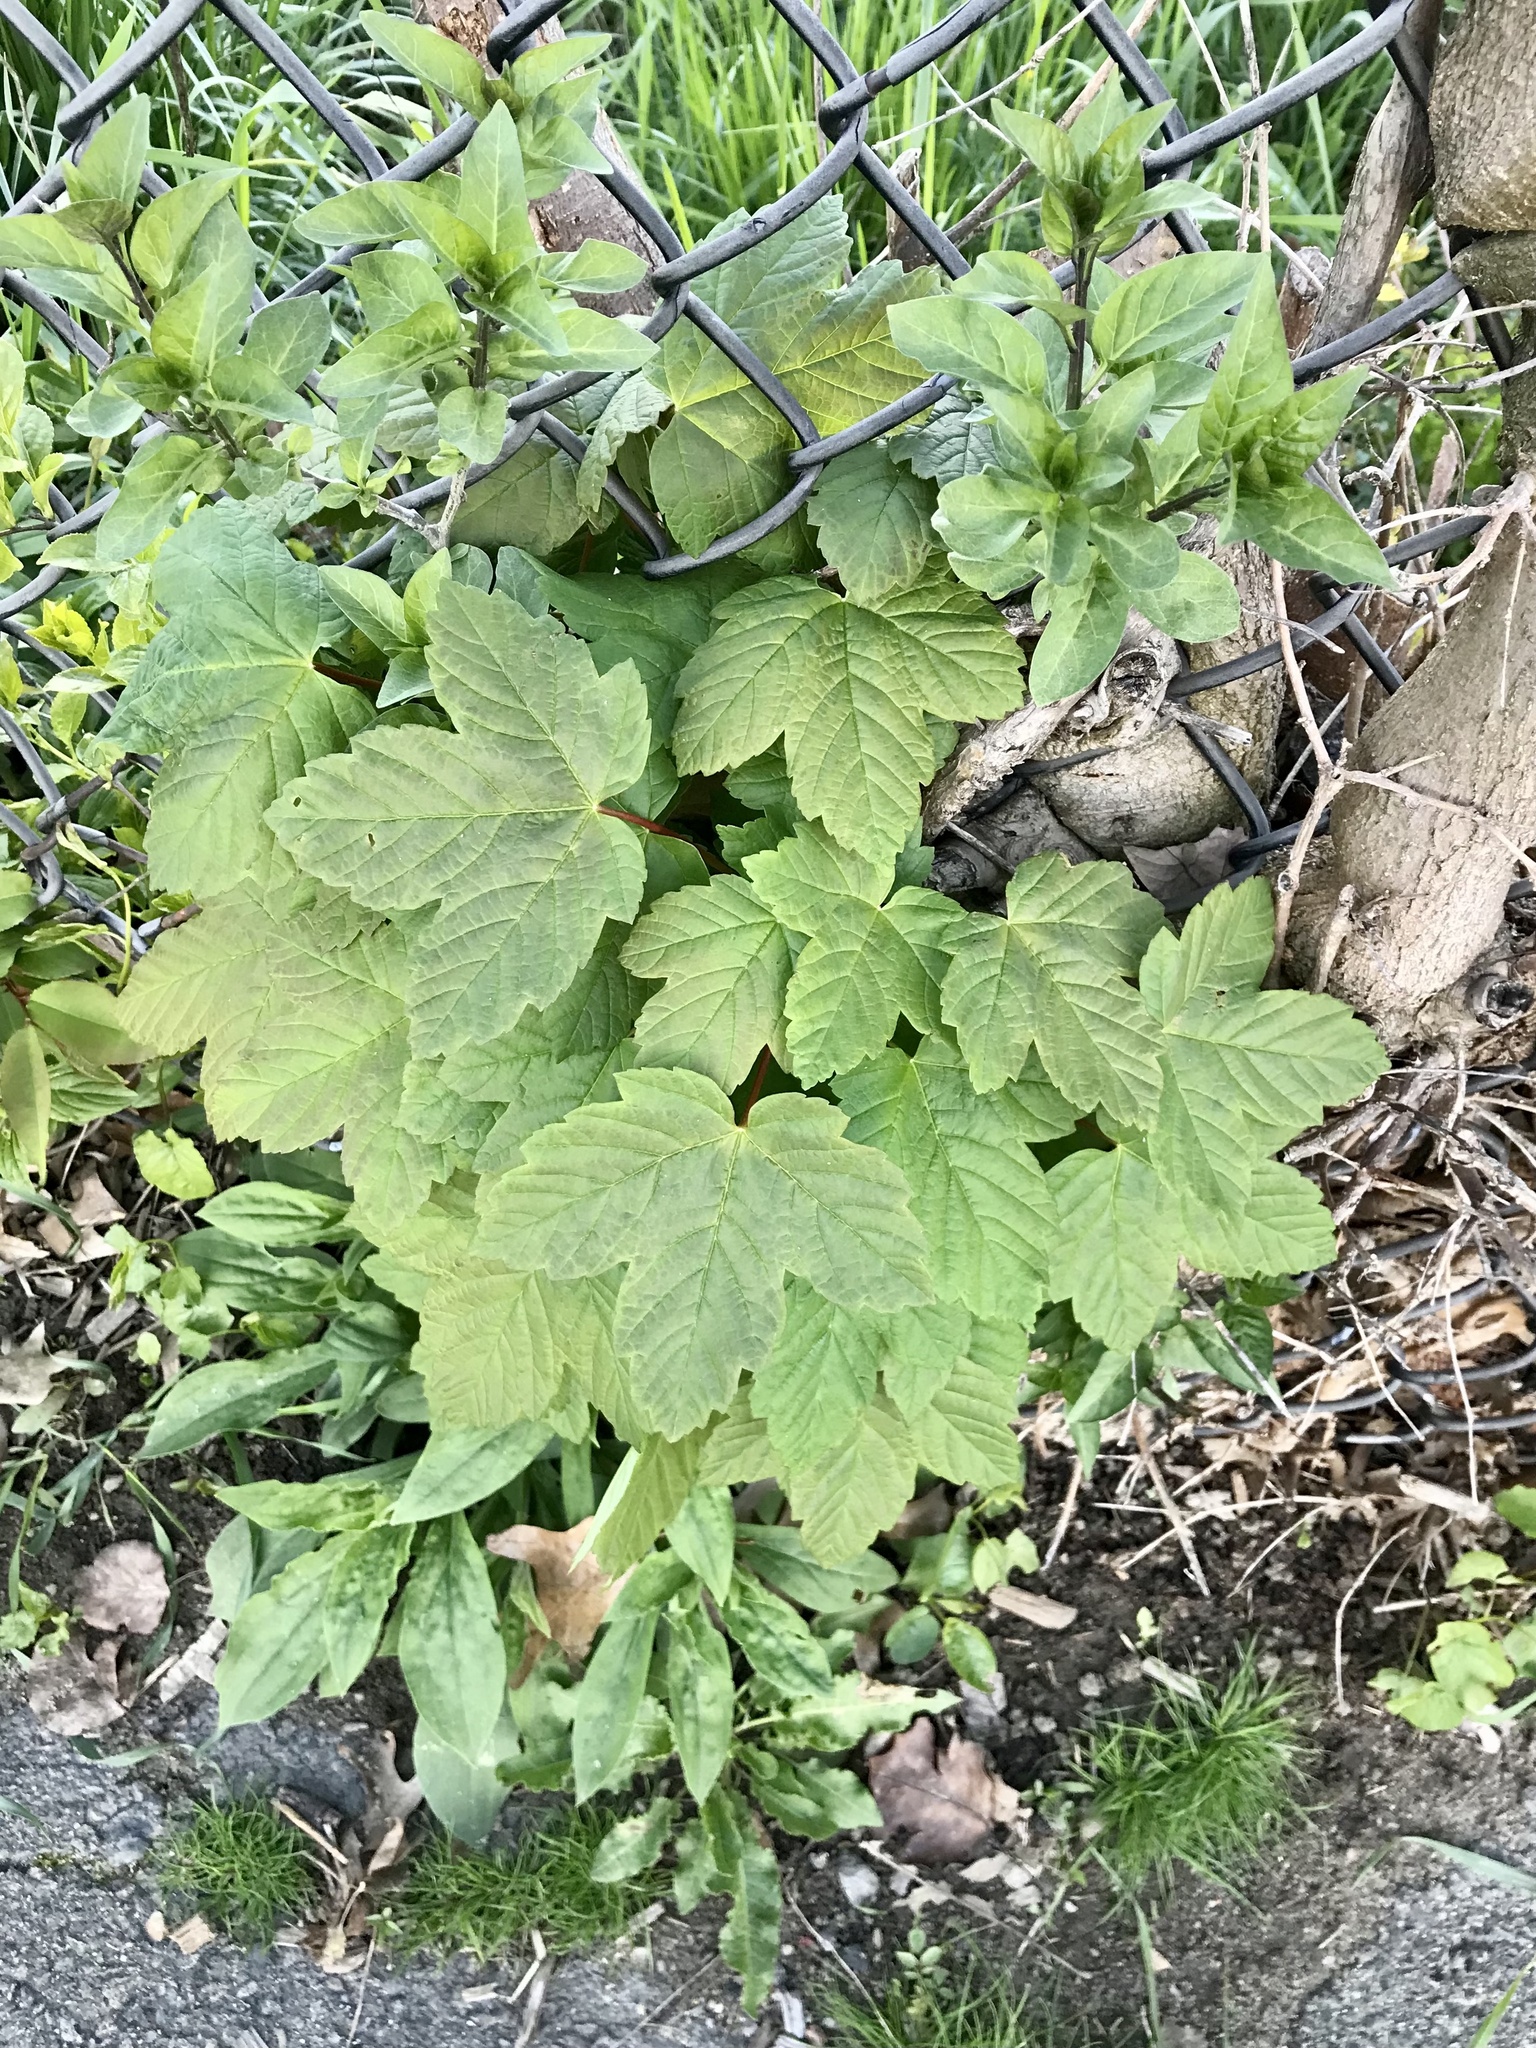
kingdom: Plantae
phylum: Tracheophyta
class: Magnoliopsida
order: Sapindales
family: Sapindaceae
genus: Acer
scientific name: Acer pseudoplatanus
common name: Sycamore
